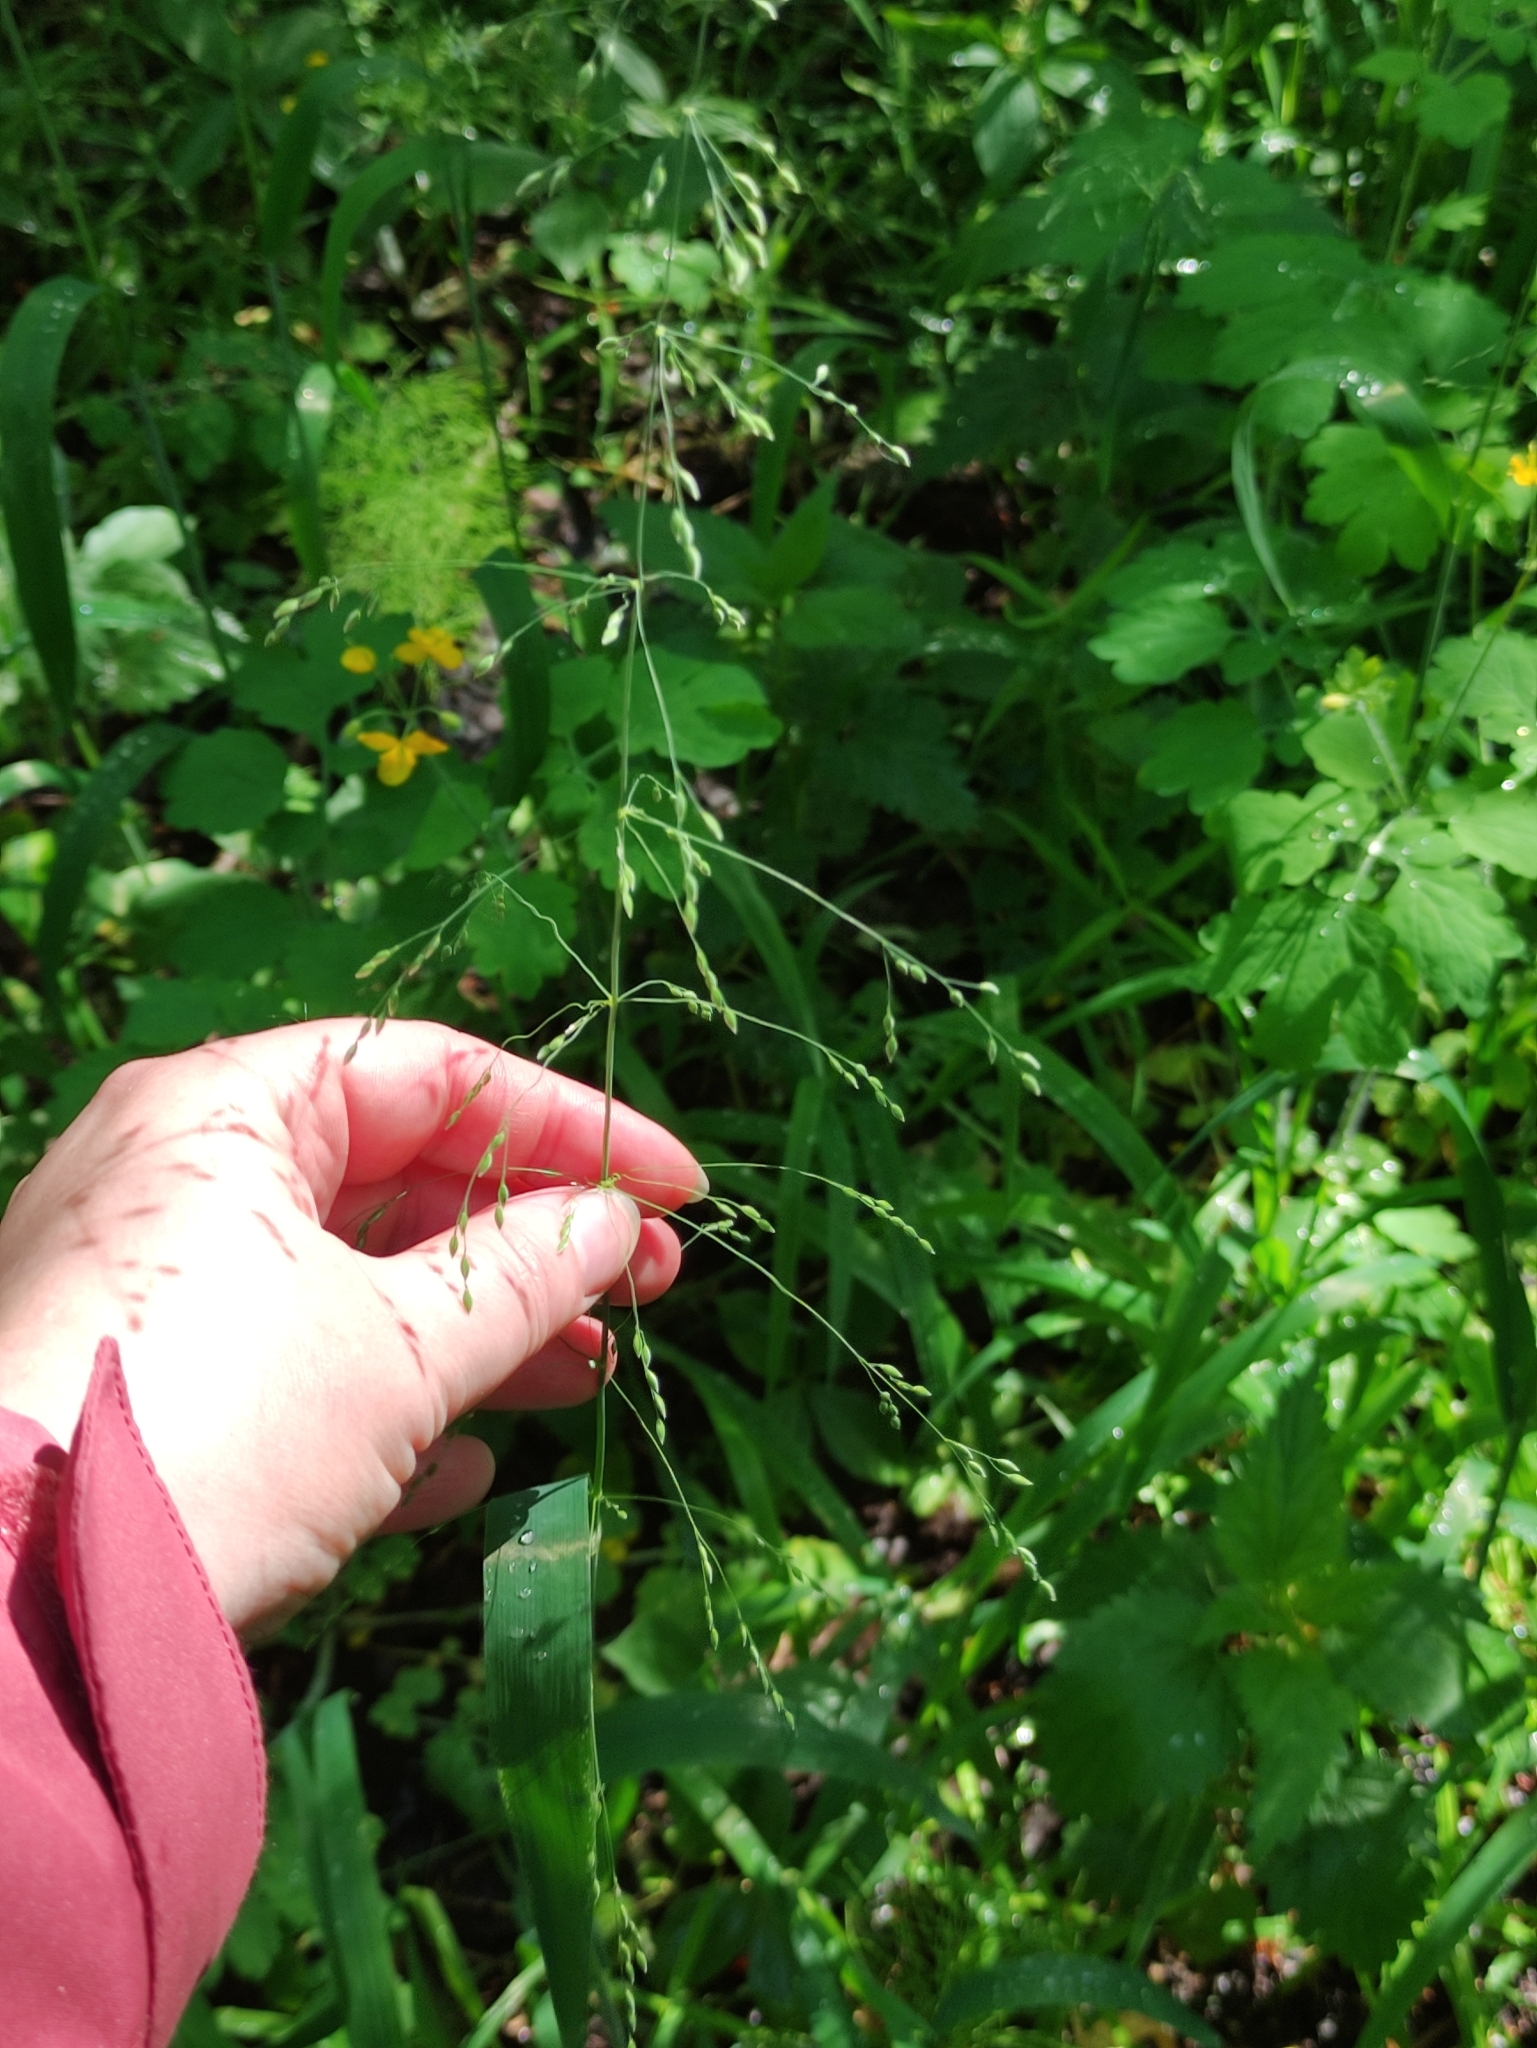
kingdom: Plantae
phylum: Tracheophyta
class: Liliopsida
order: Poales
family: Poaceae
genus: Milium
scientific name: Milium effusum
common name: Wood millet
